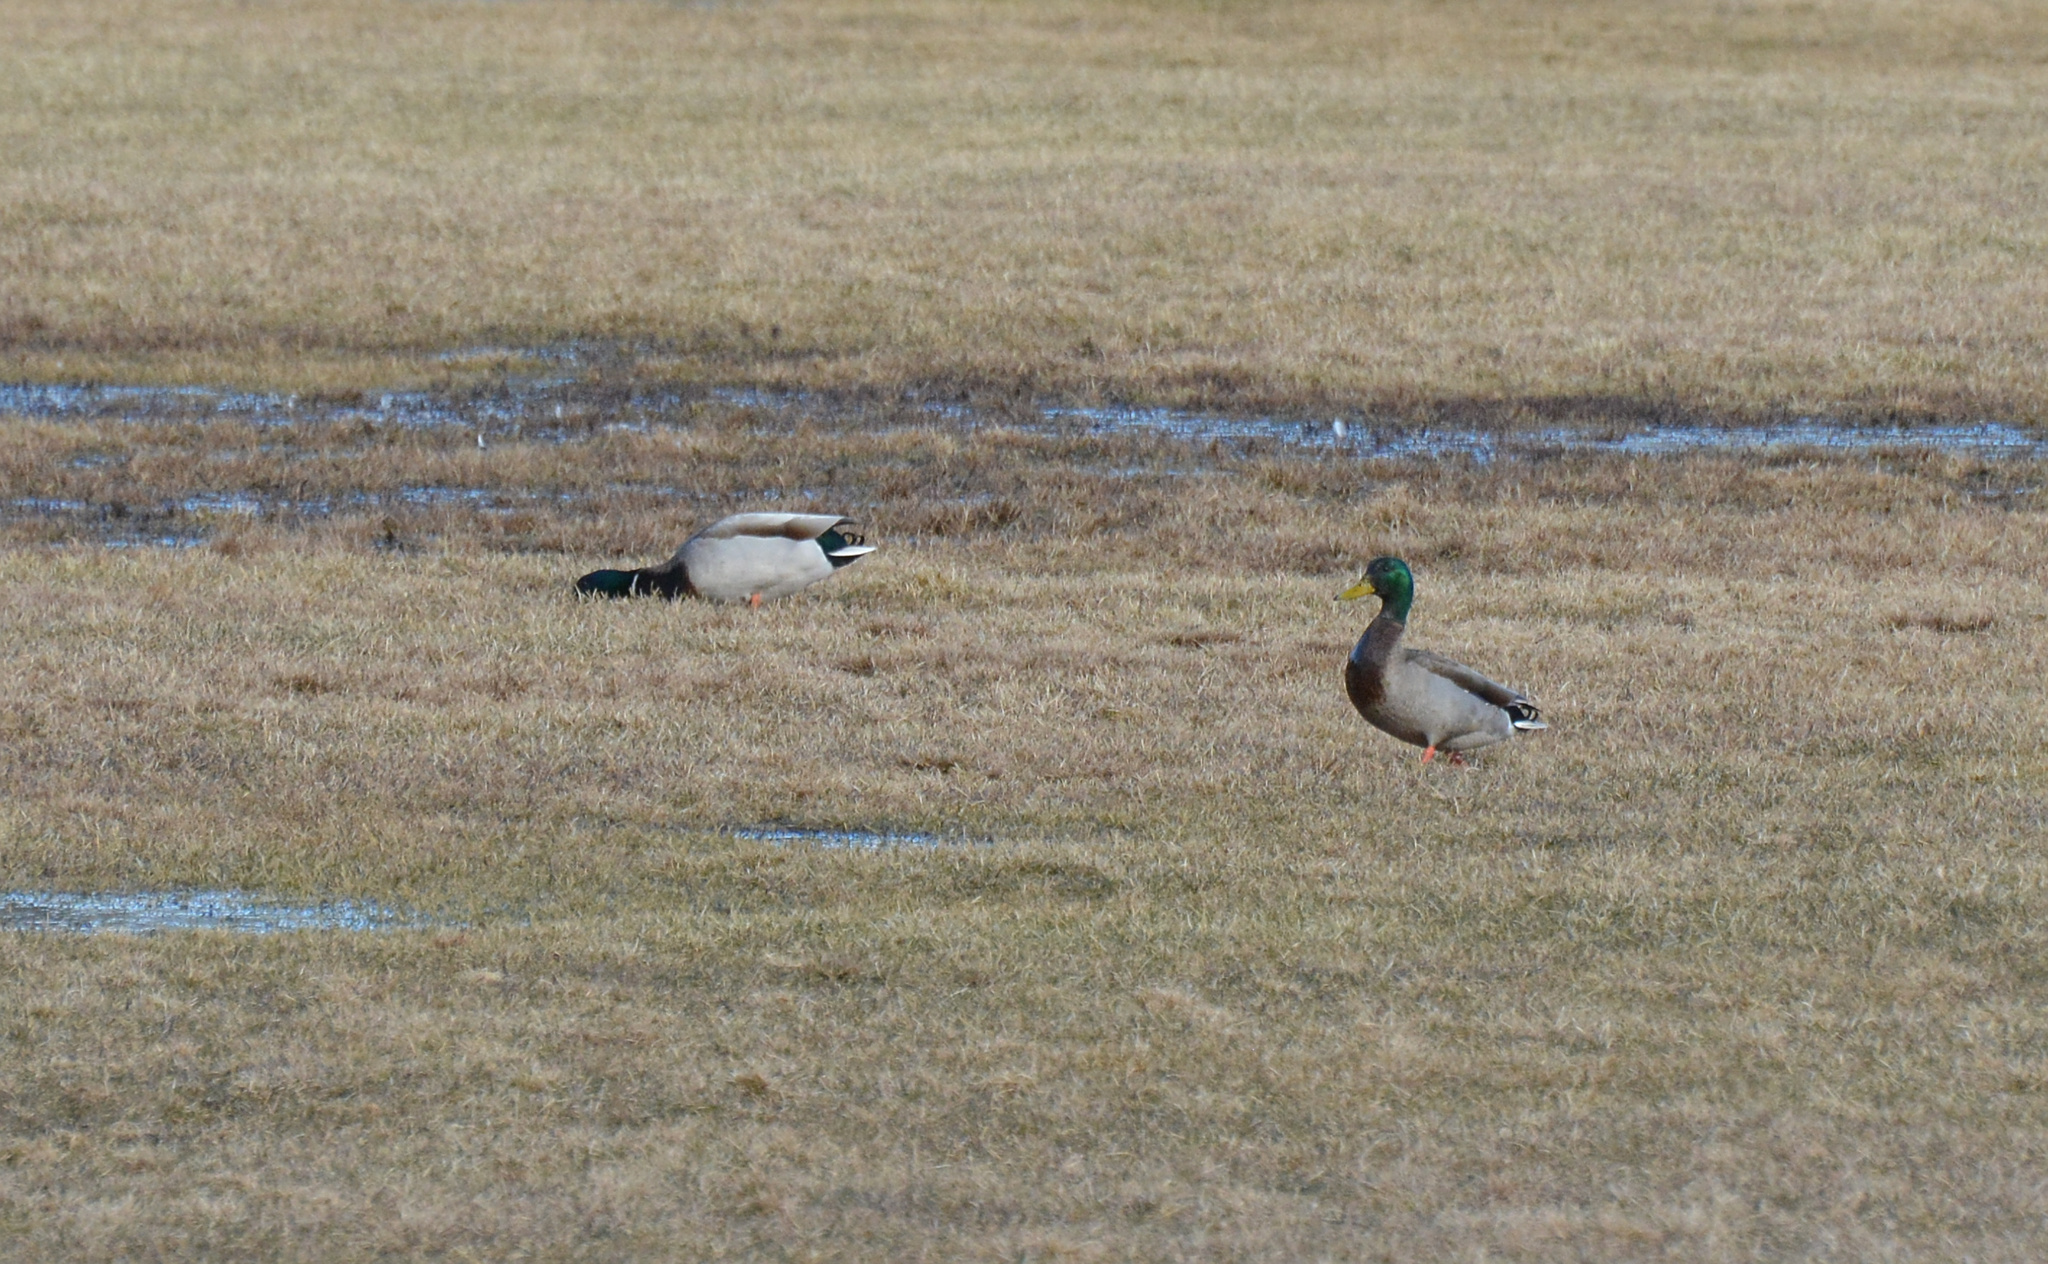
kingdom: Animalia
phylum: Chordata
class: Aves
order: Anseriformes
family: Anatidae
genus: Anas
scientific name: Anas platyrhynchos
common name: Mallard
